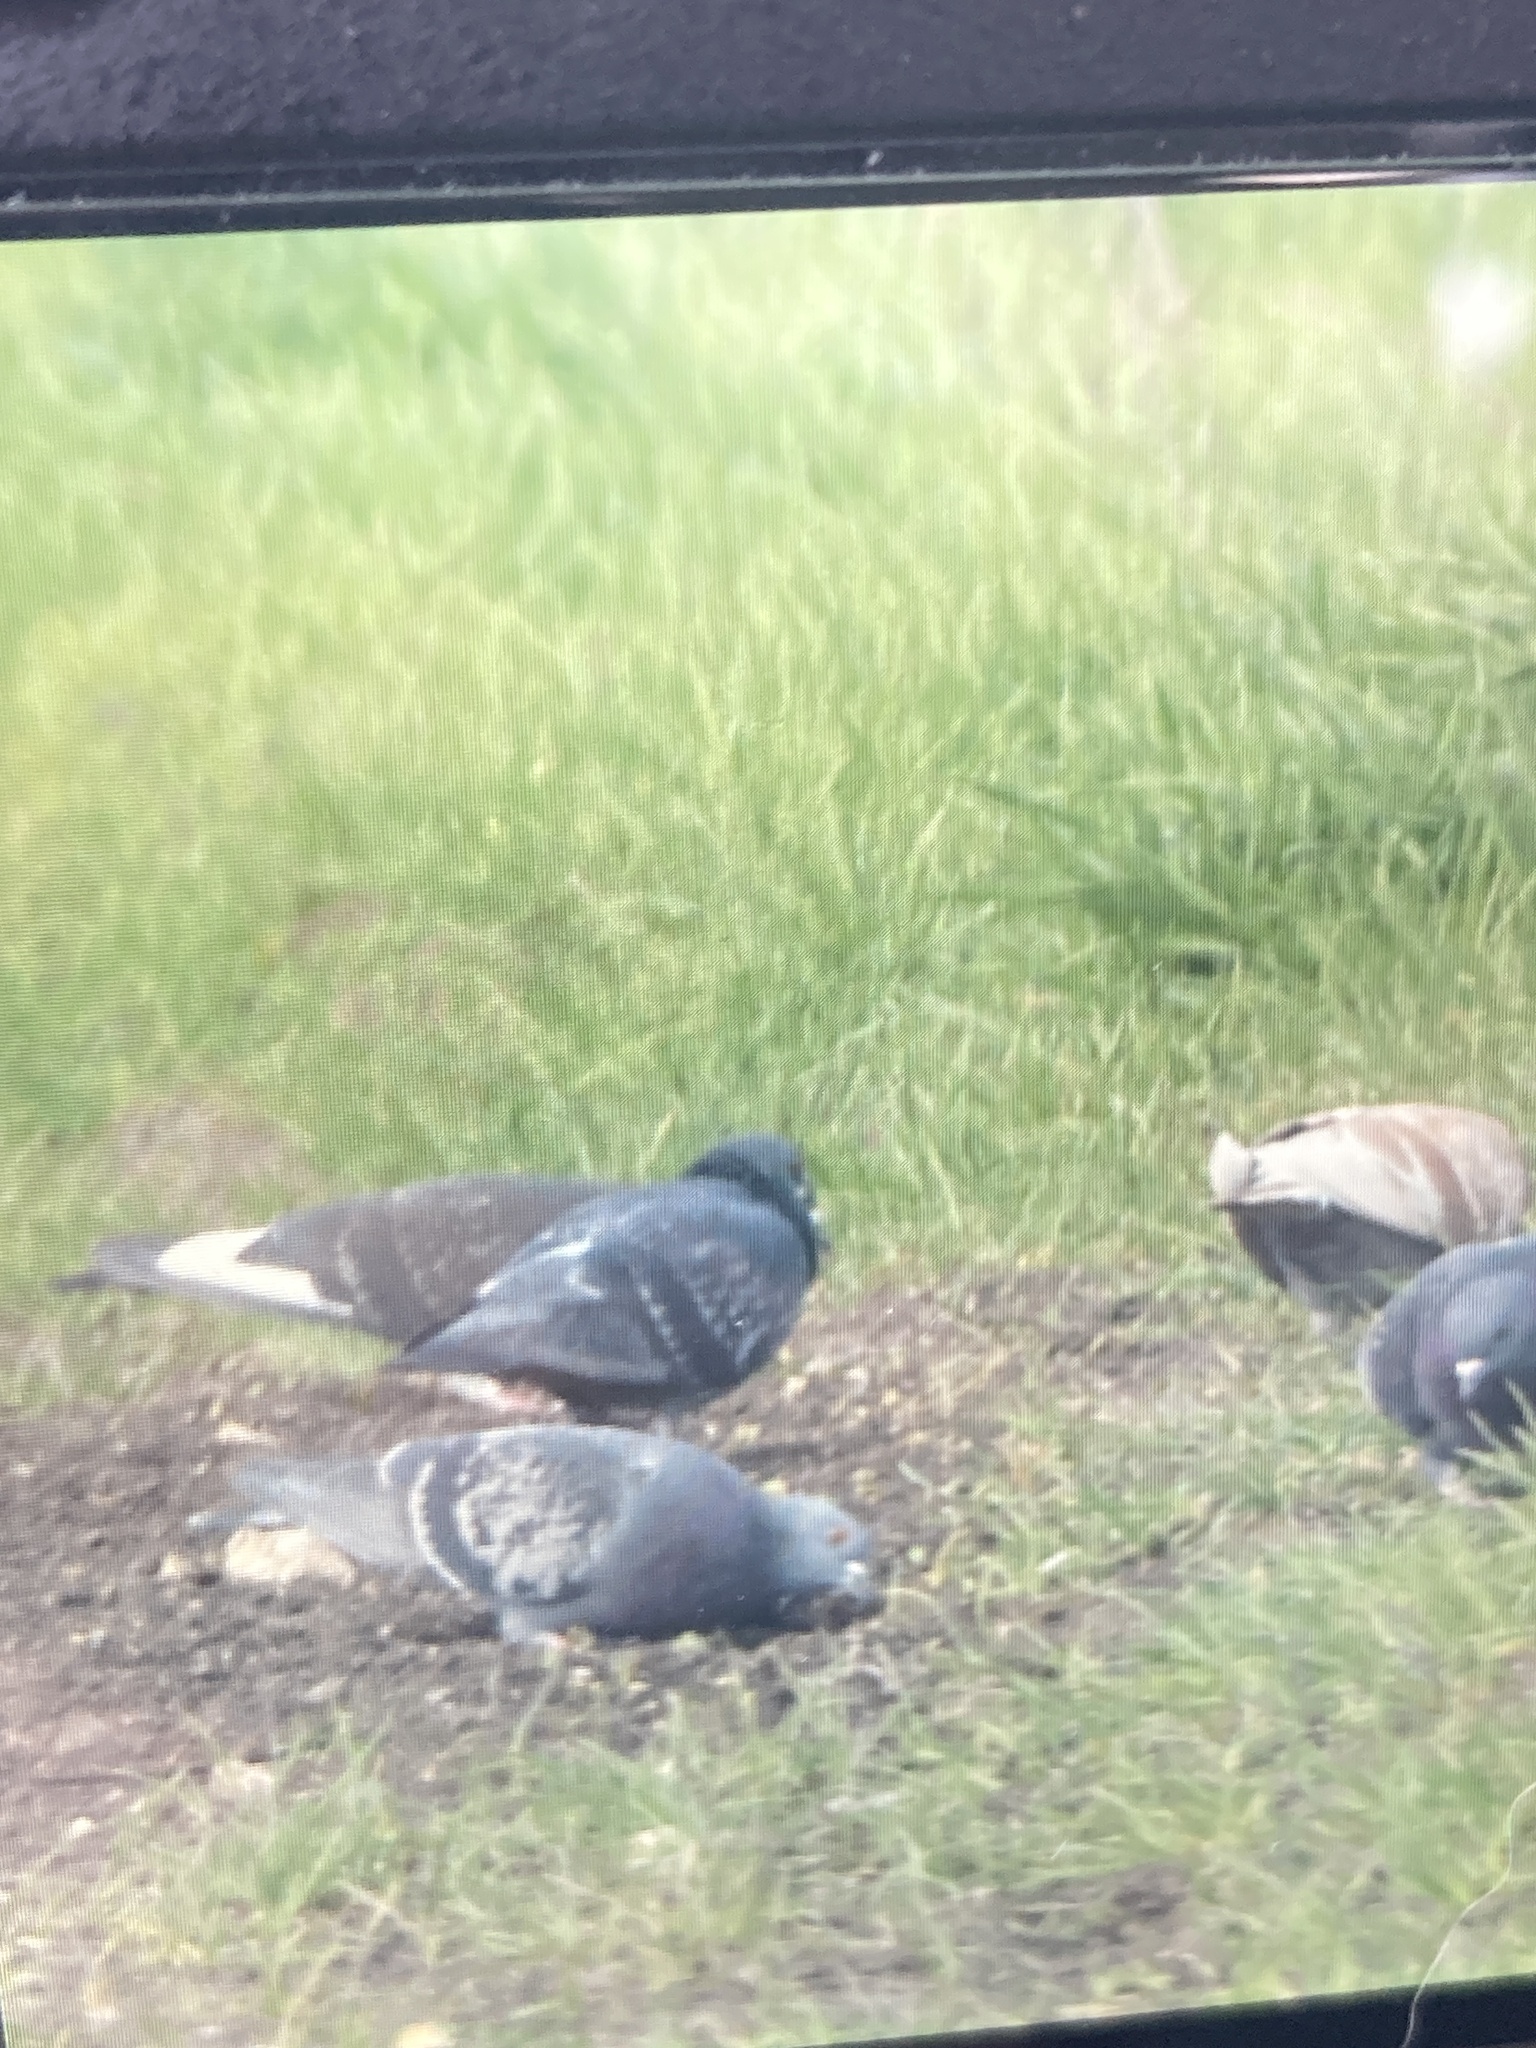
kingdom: Animalia
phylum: Chordata
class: Aves
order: Columbiformes
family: Columbidae
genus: Columba
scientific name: Columba livia
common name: Rock pigeon
